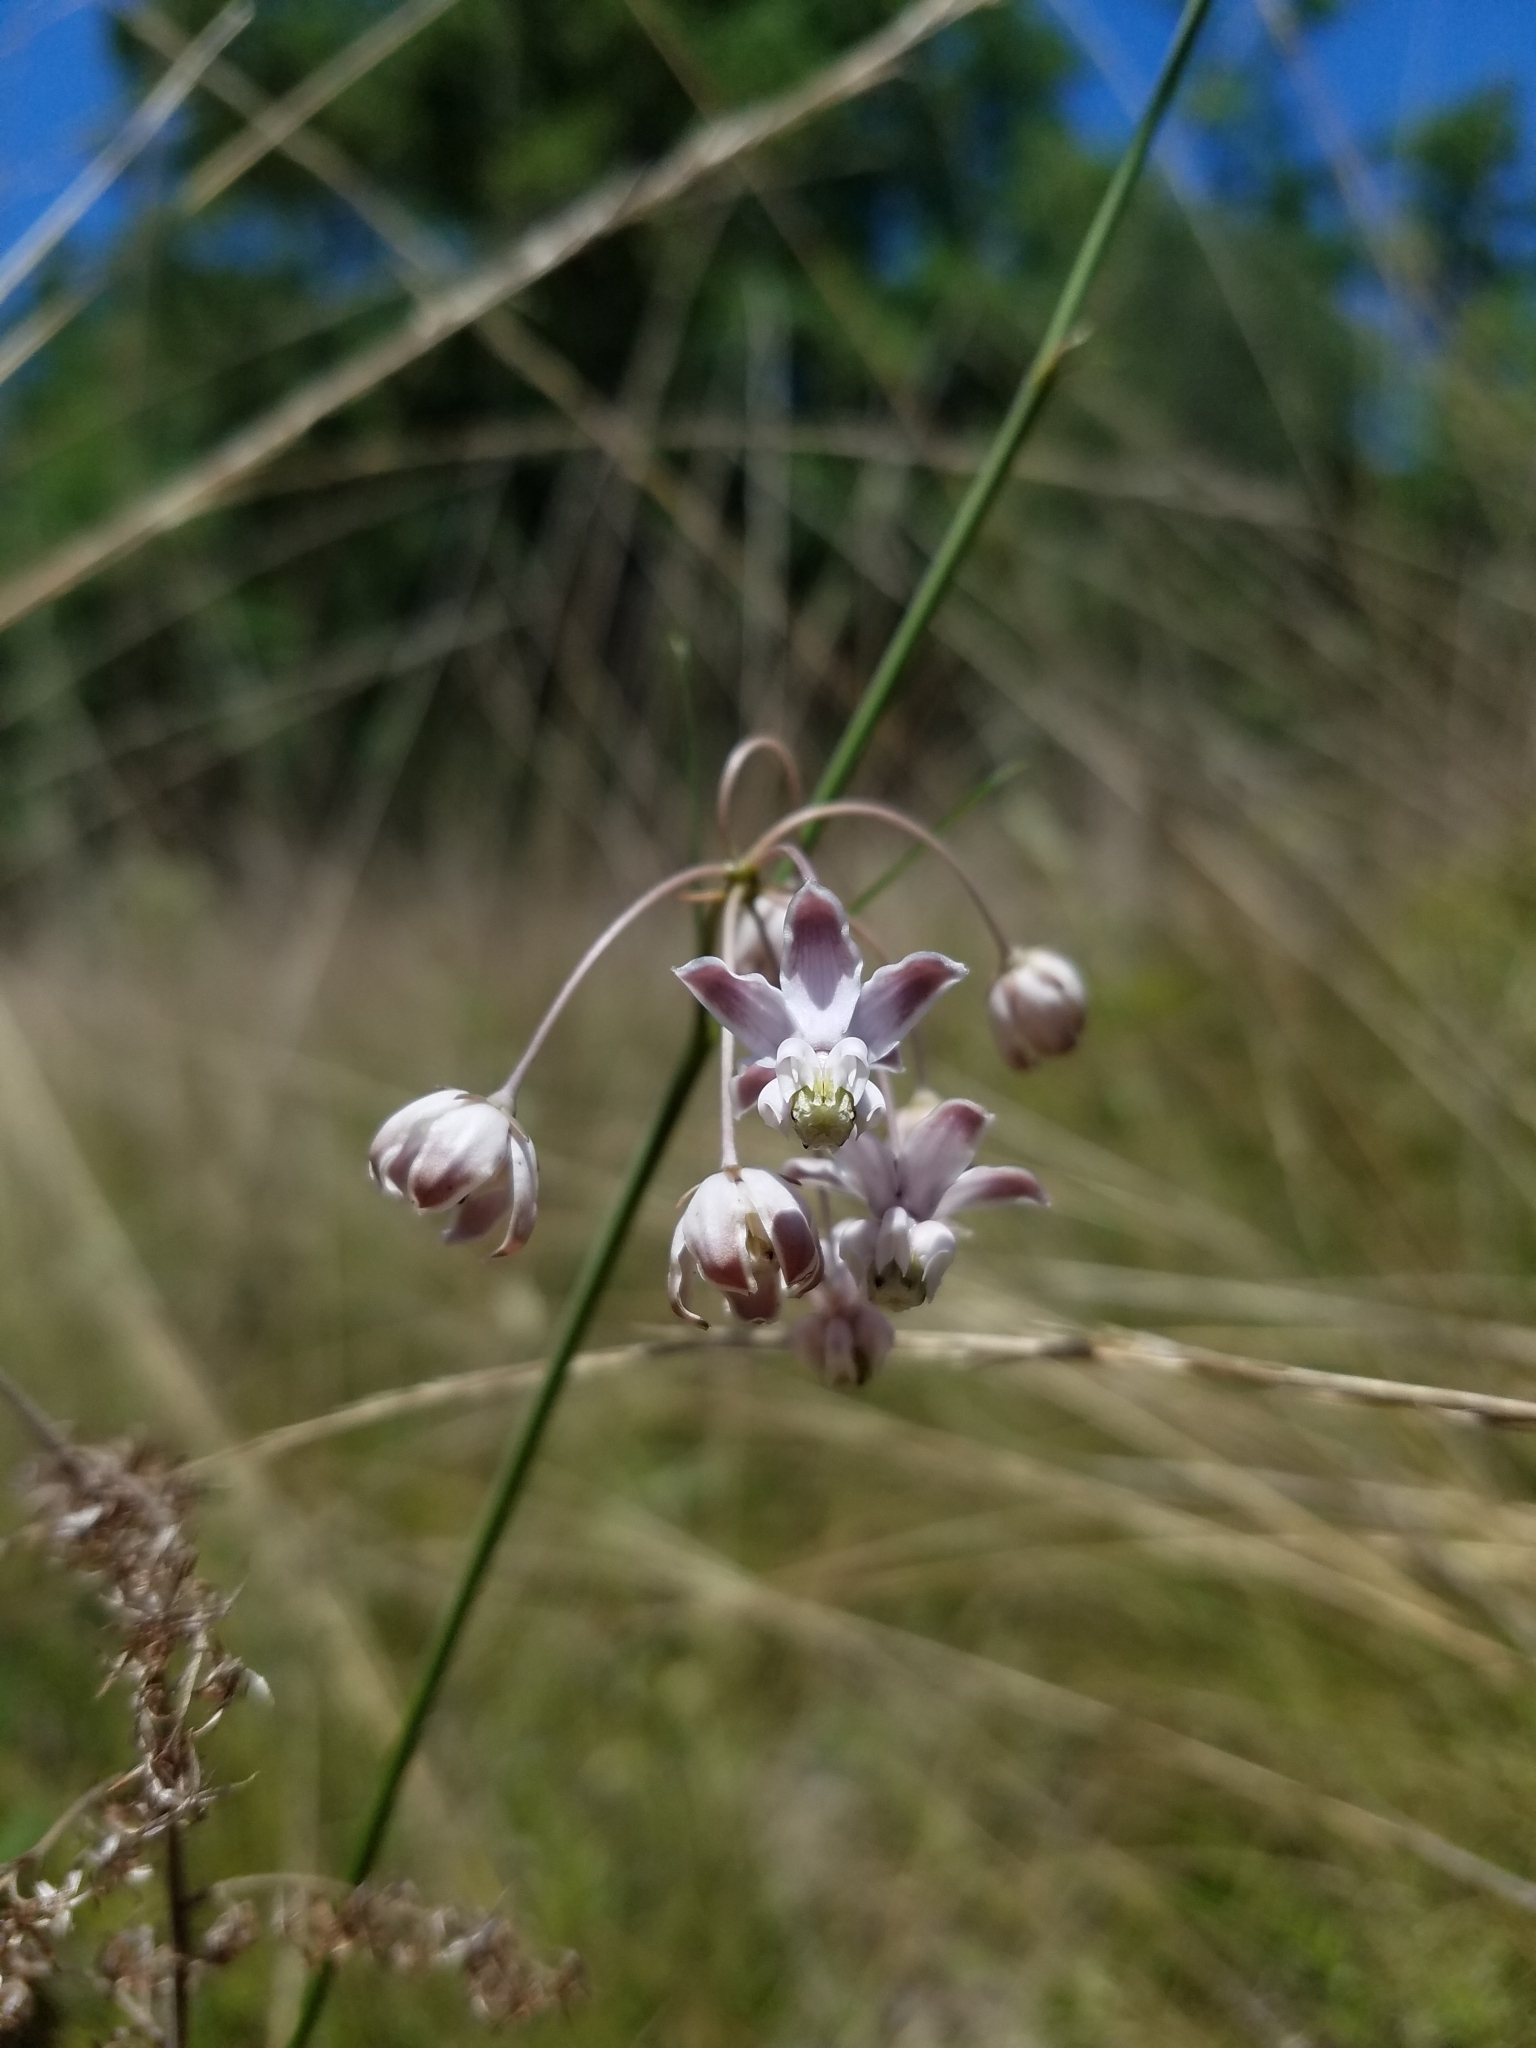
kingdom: Plantae
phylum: Tracheophyta
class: Magnoliopsida
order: Gentianales
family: Apocynaceae
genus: Asclepias
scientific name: Asclepias cinerea
